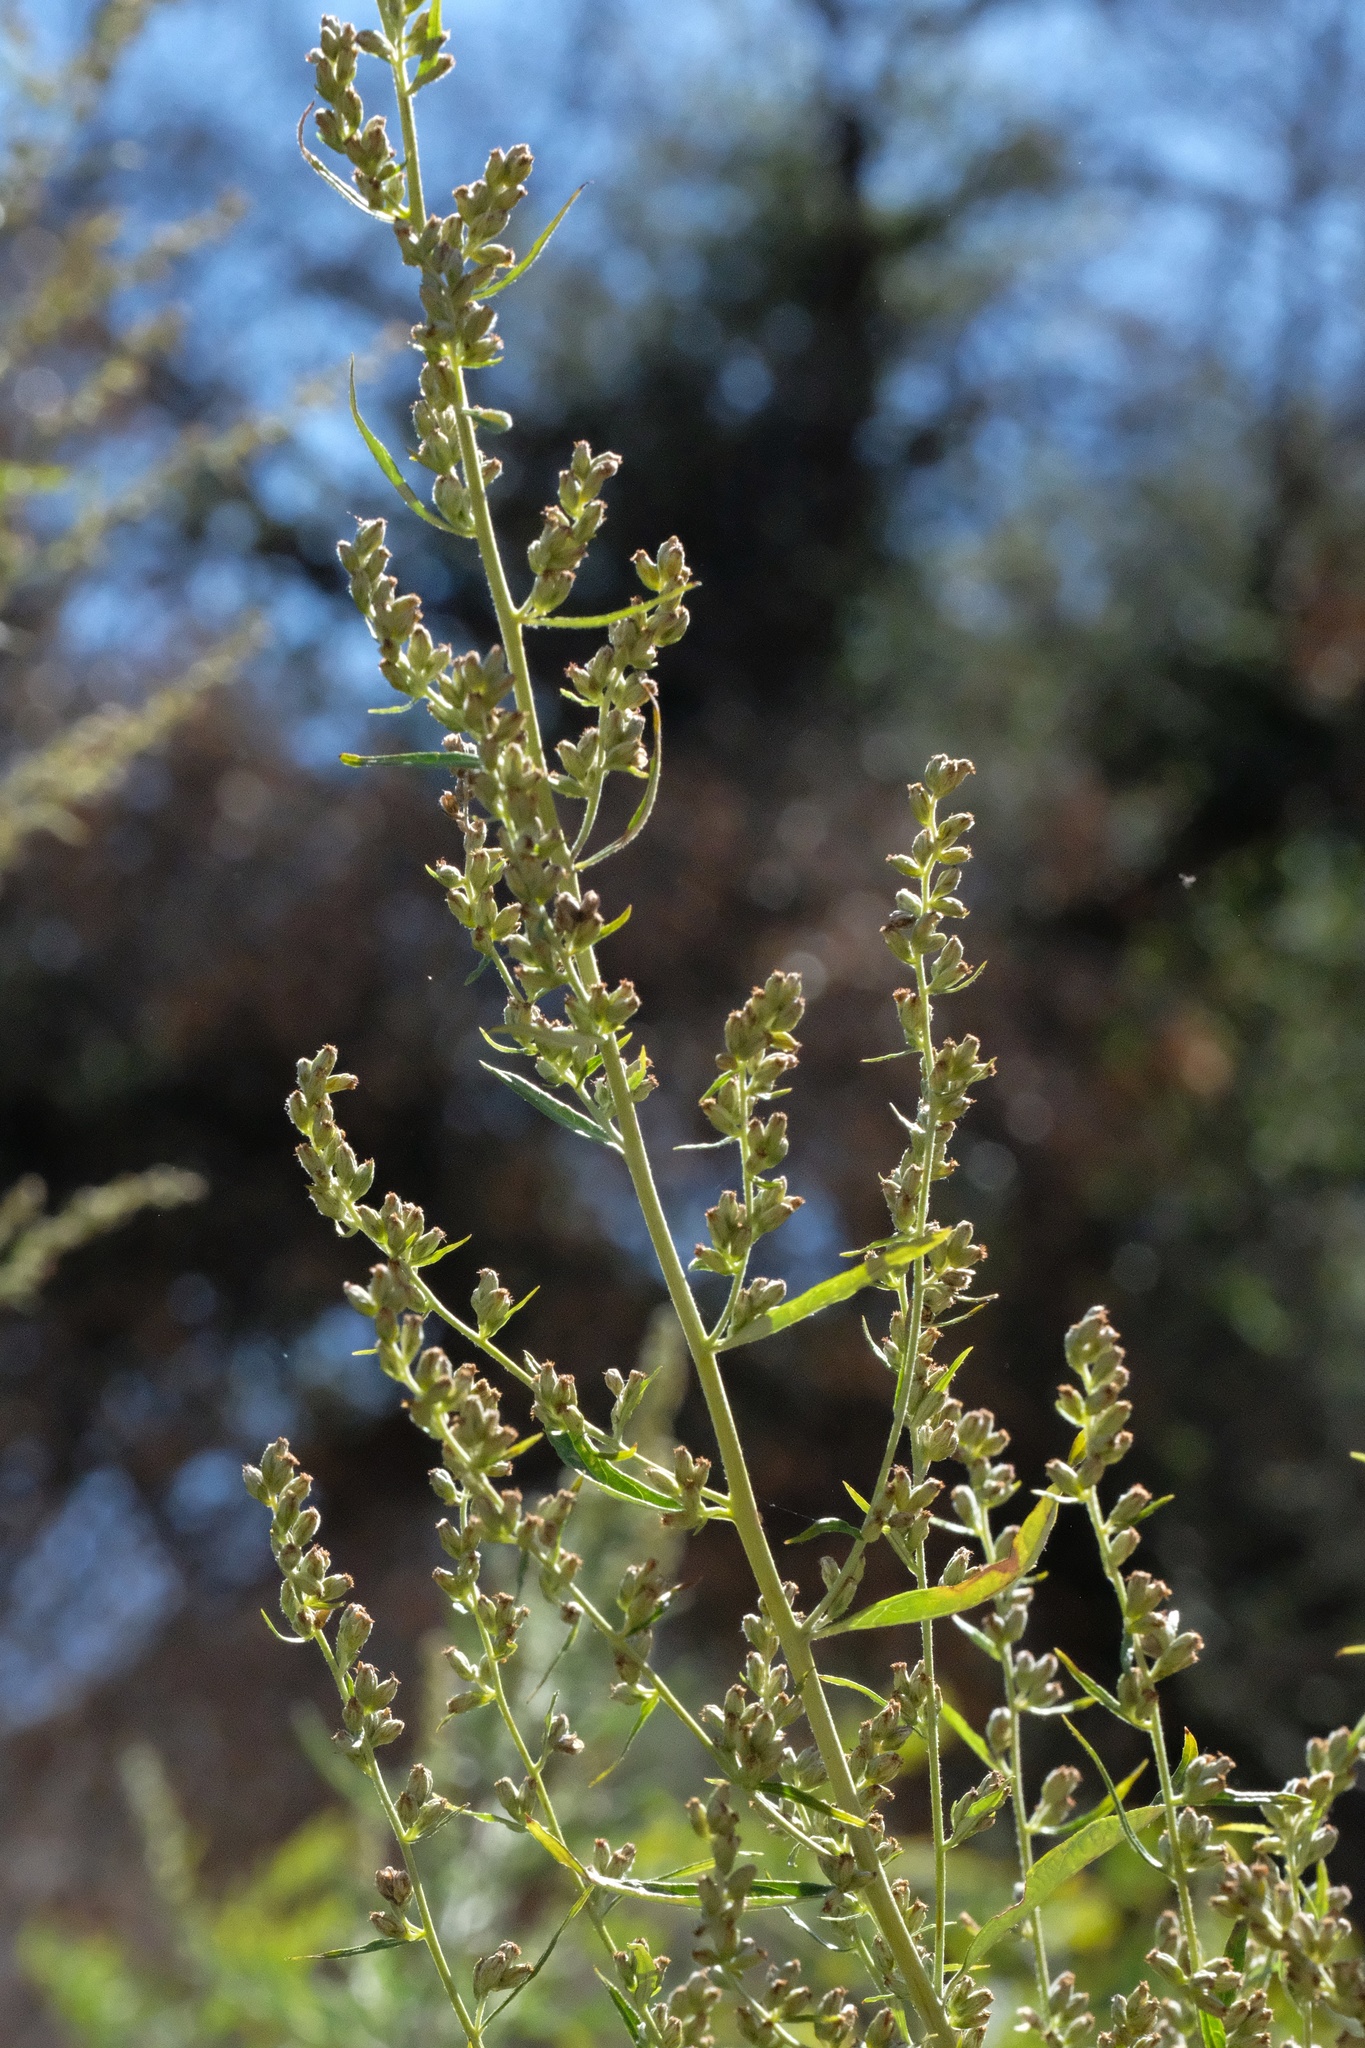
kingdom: Plantae
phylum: Tracheophyta
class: Magnoliopsida
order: Asterales
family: Asteraceae
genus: Artemisia
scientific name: Artemisia douglasiana
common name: Northwest mugwort
